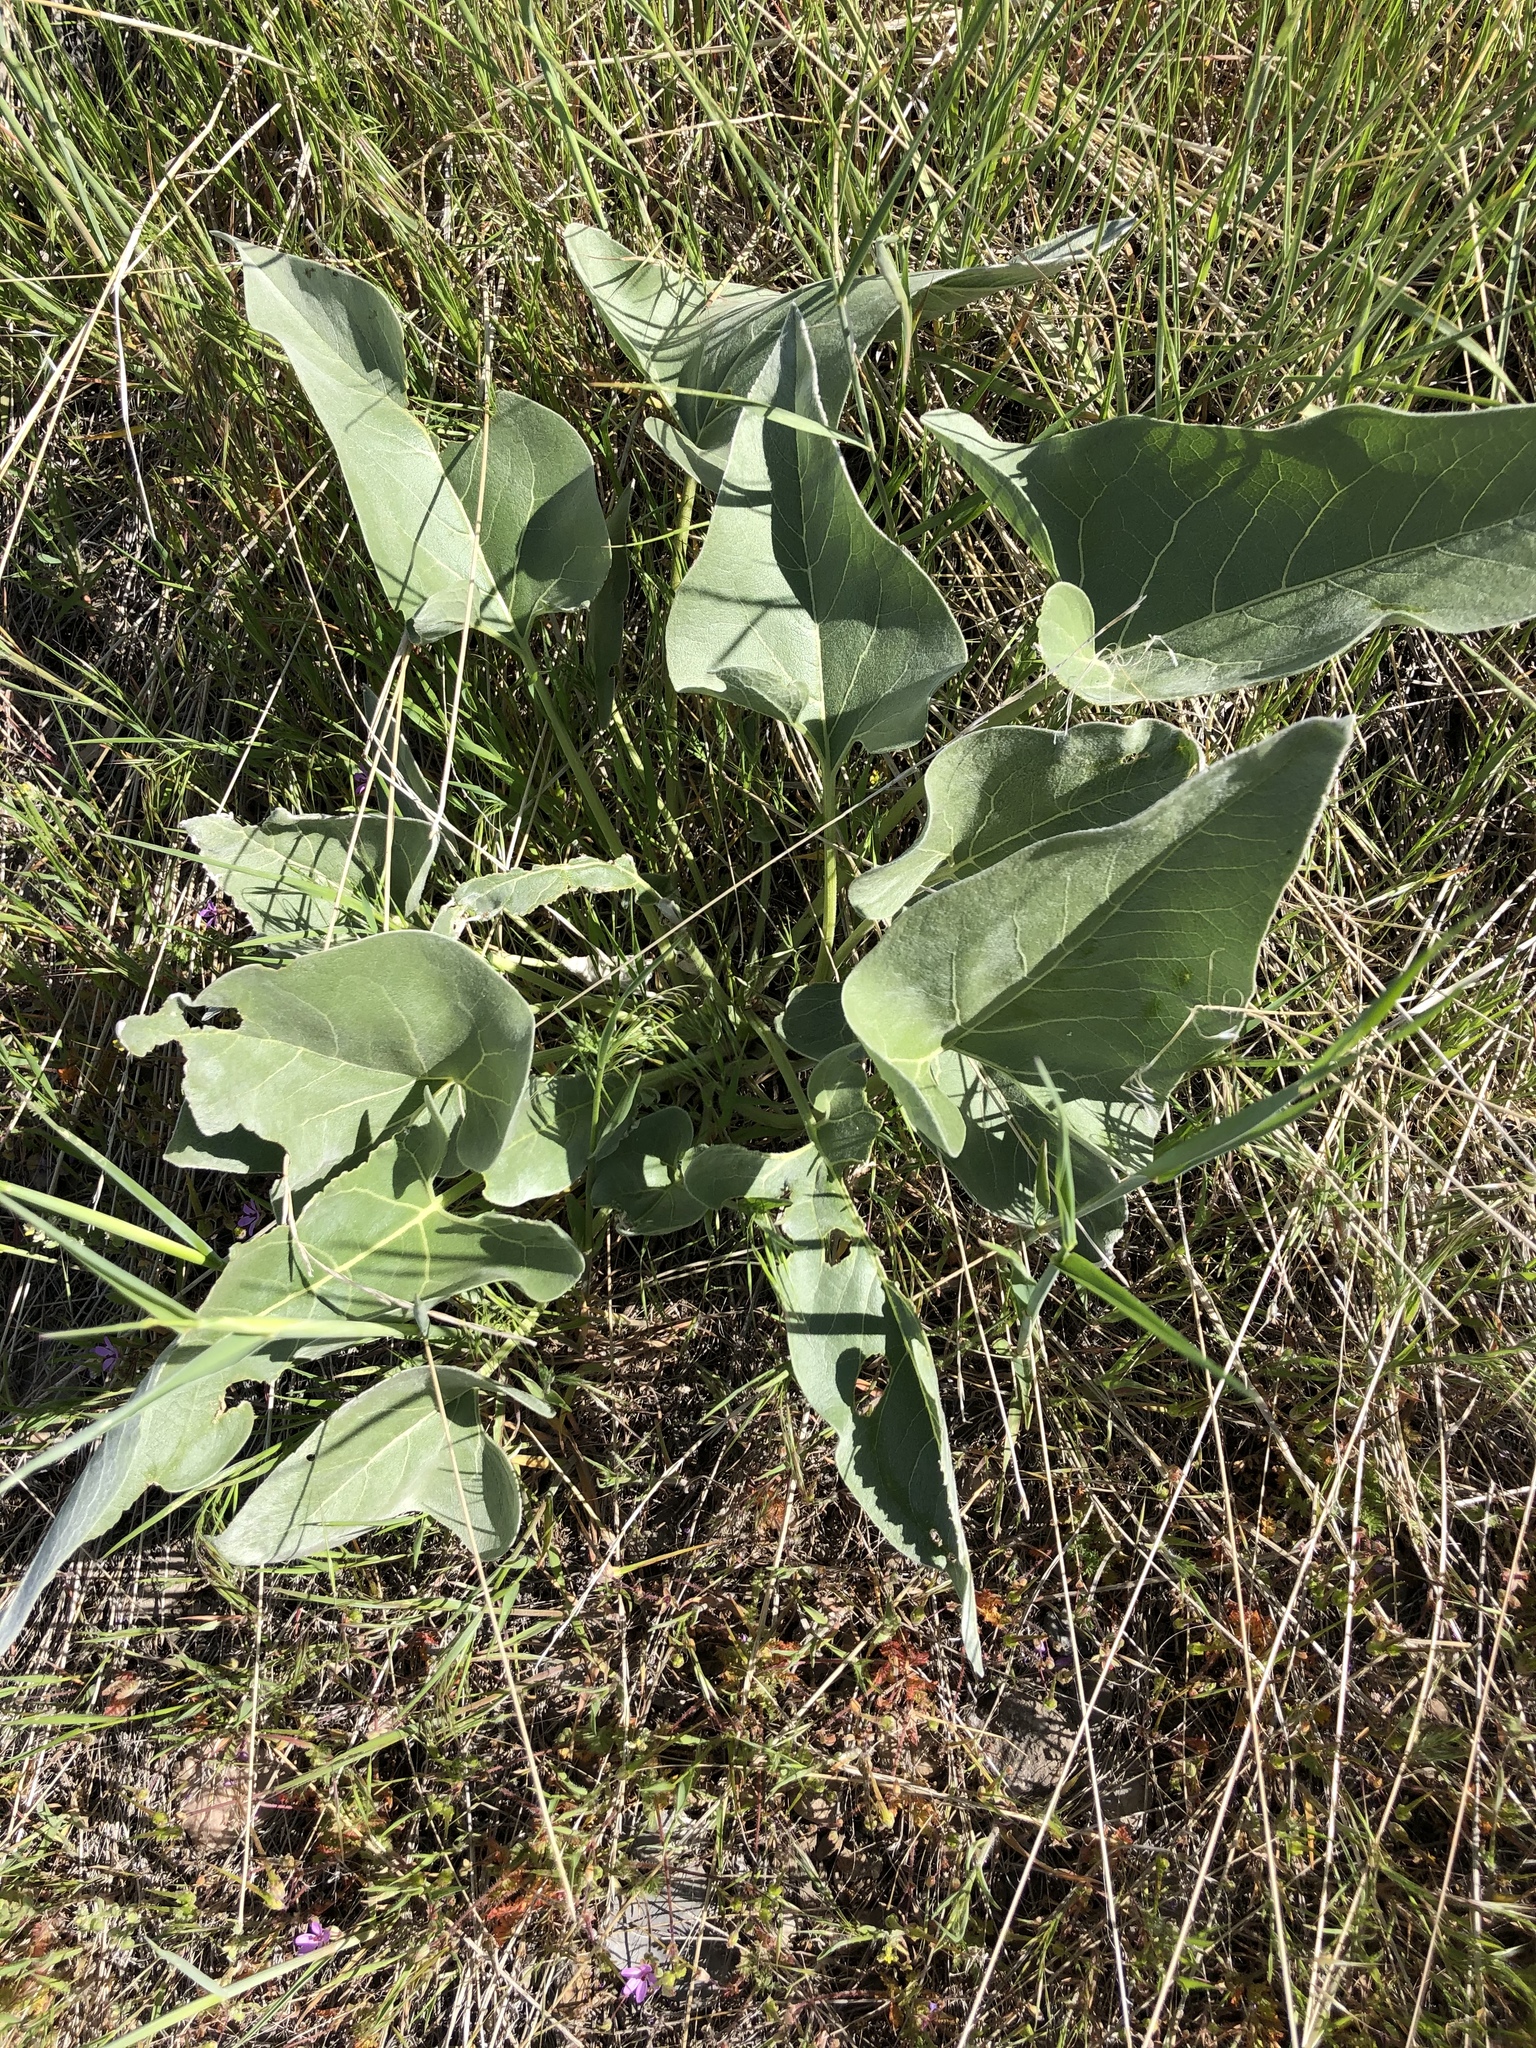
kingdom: Plantae
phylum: Tracheophyta
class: Magnoliopsida
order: Asterales
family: Asteraceae
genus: Wyethia
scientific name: Wyethia sagittata
